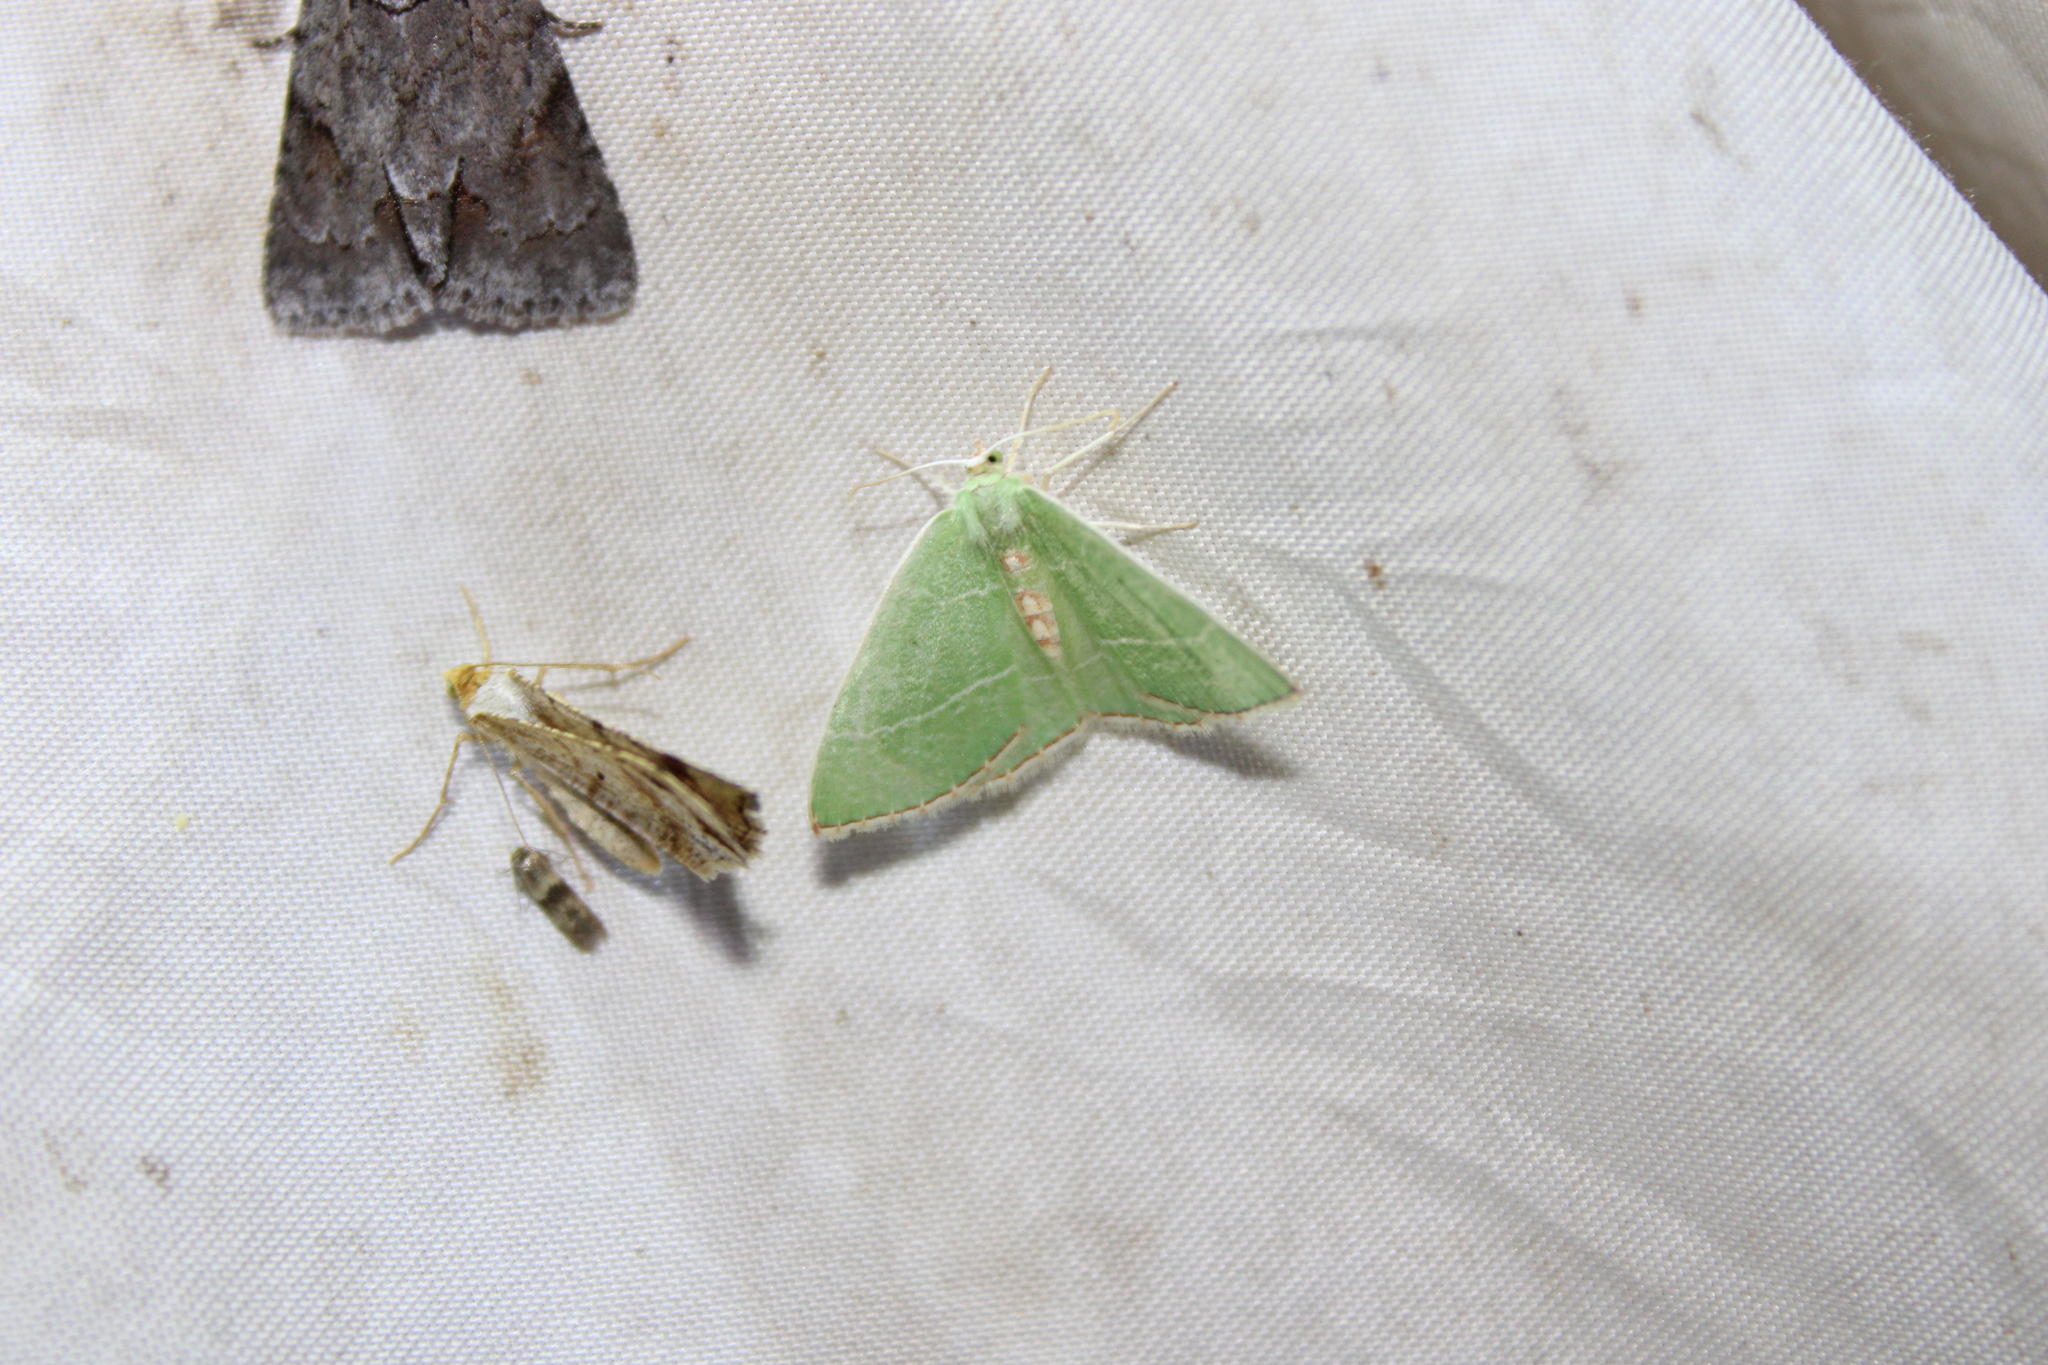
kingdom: Animalia
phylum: Arthropoda
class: Insecta
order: Lepidoptera
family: Geometridae
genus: Nemoria
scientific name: Nemoria bistriaria
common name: Red-fringed emerald
